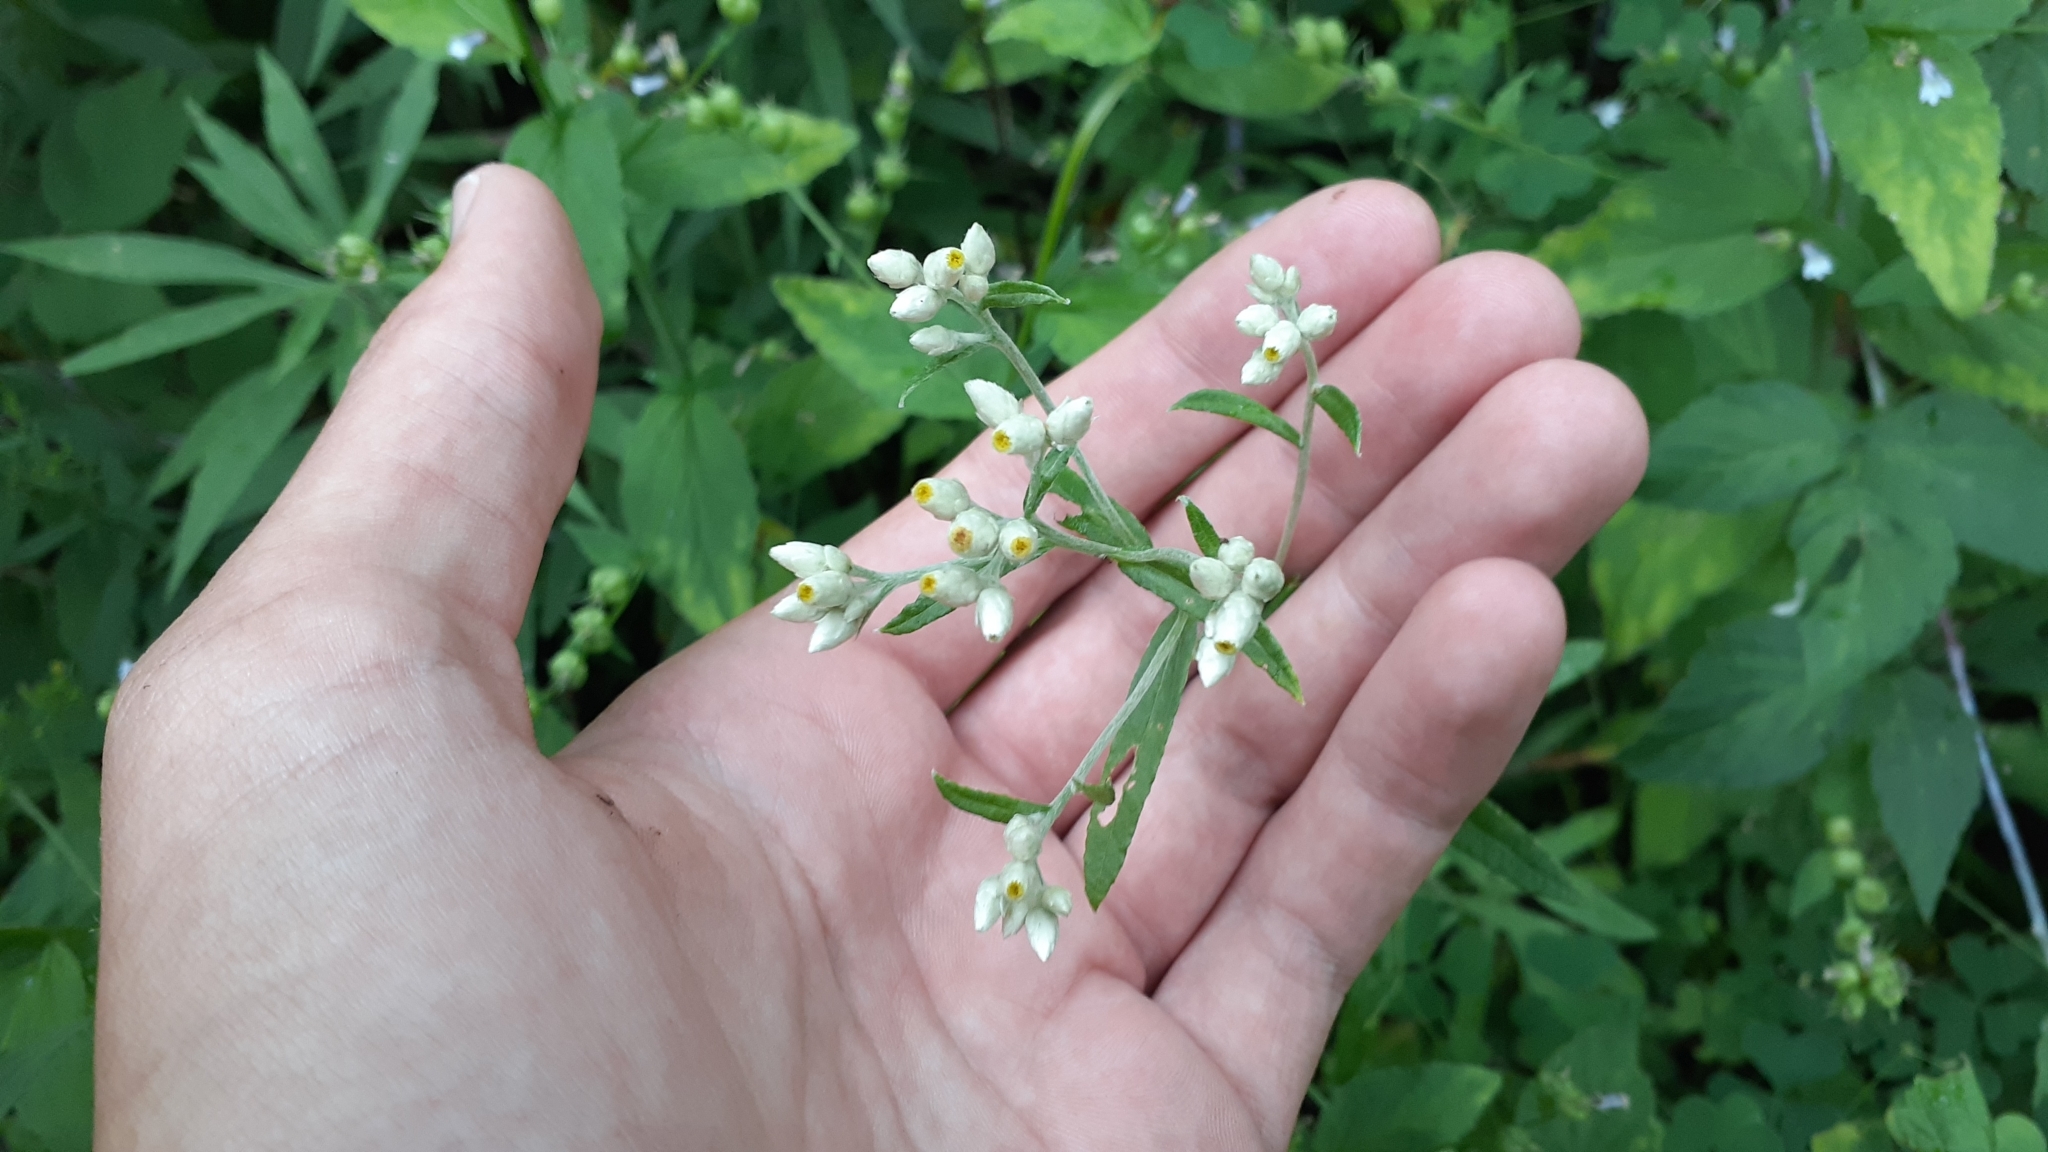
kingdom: Plantae
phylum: Tracheophyta
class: Magnoliopsida
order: Asterales
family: Asteraceae
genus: Pseudognaphalium
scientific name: Pseudognaphalium obtusifolium
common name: Eastern rabbit-tobacco
